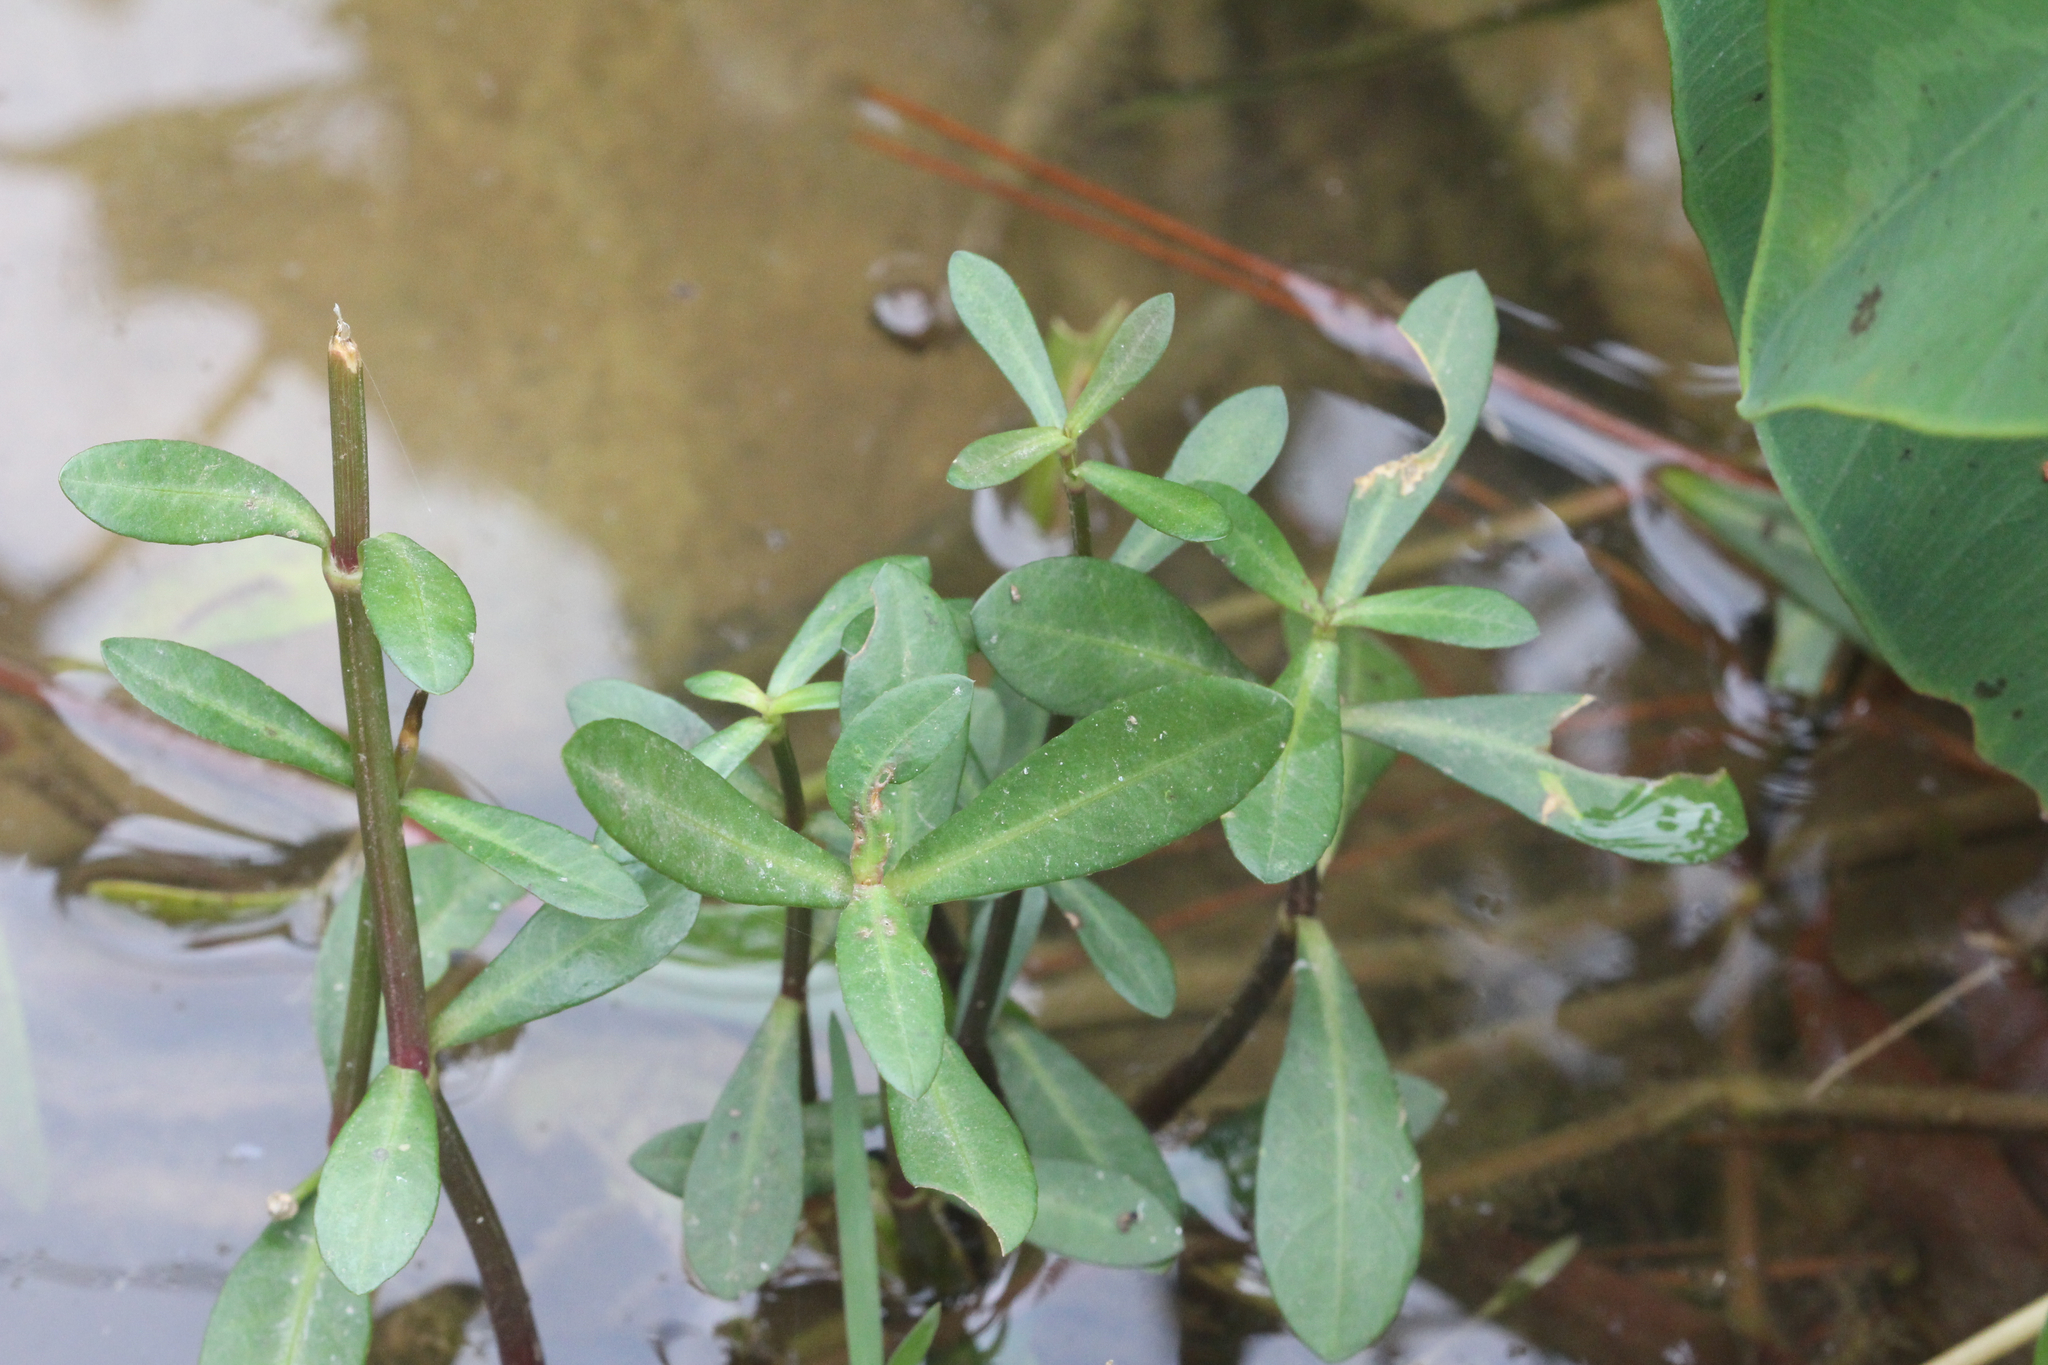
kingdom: Plantae
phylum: Tracheophyta
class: Magnoliopsida
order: Caryophyllales
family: Amaranthaceae
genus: Alternanthera
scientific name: Alternanthera philoxeroides
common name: Alligatorweed
